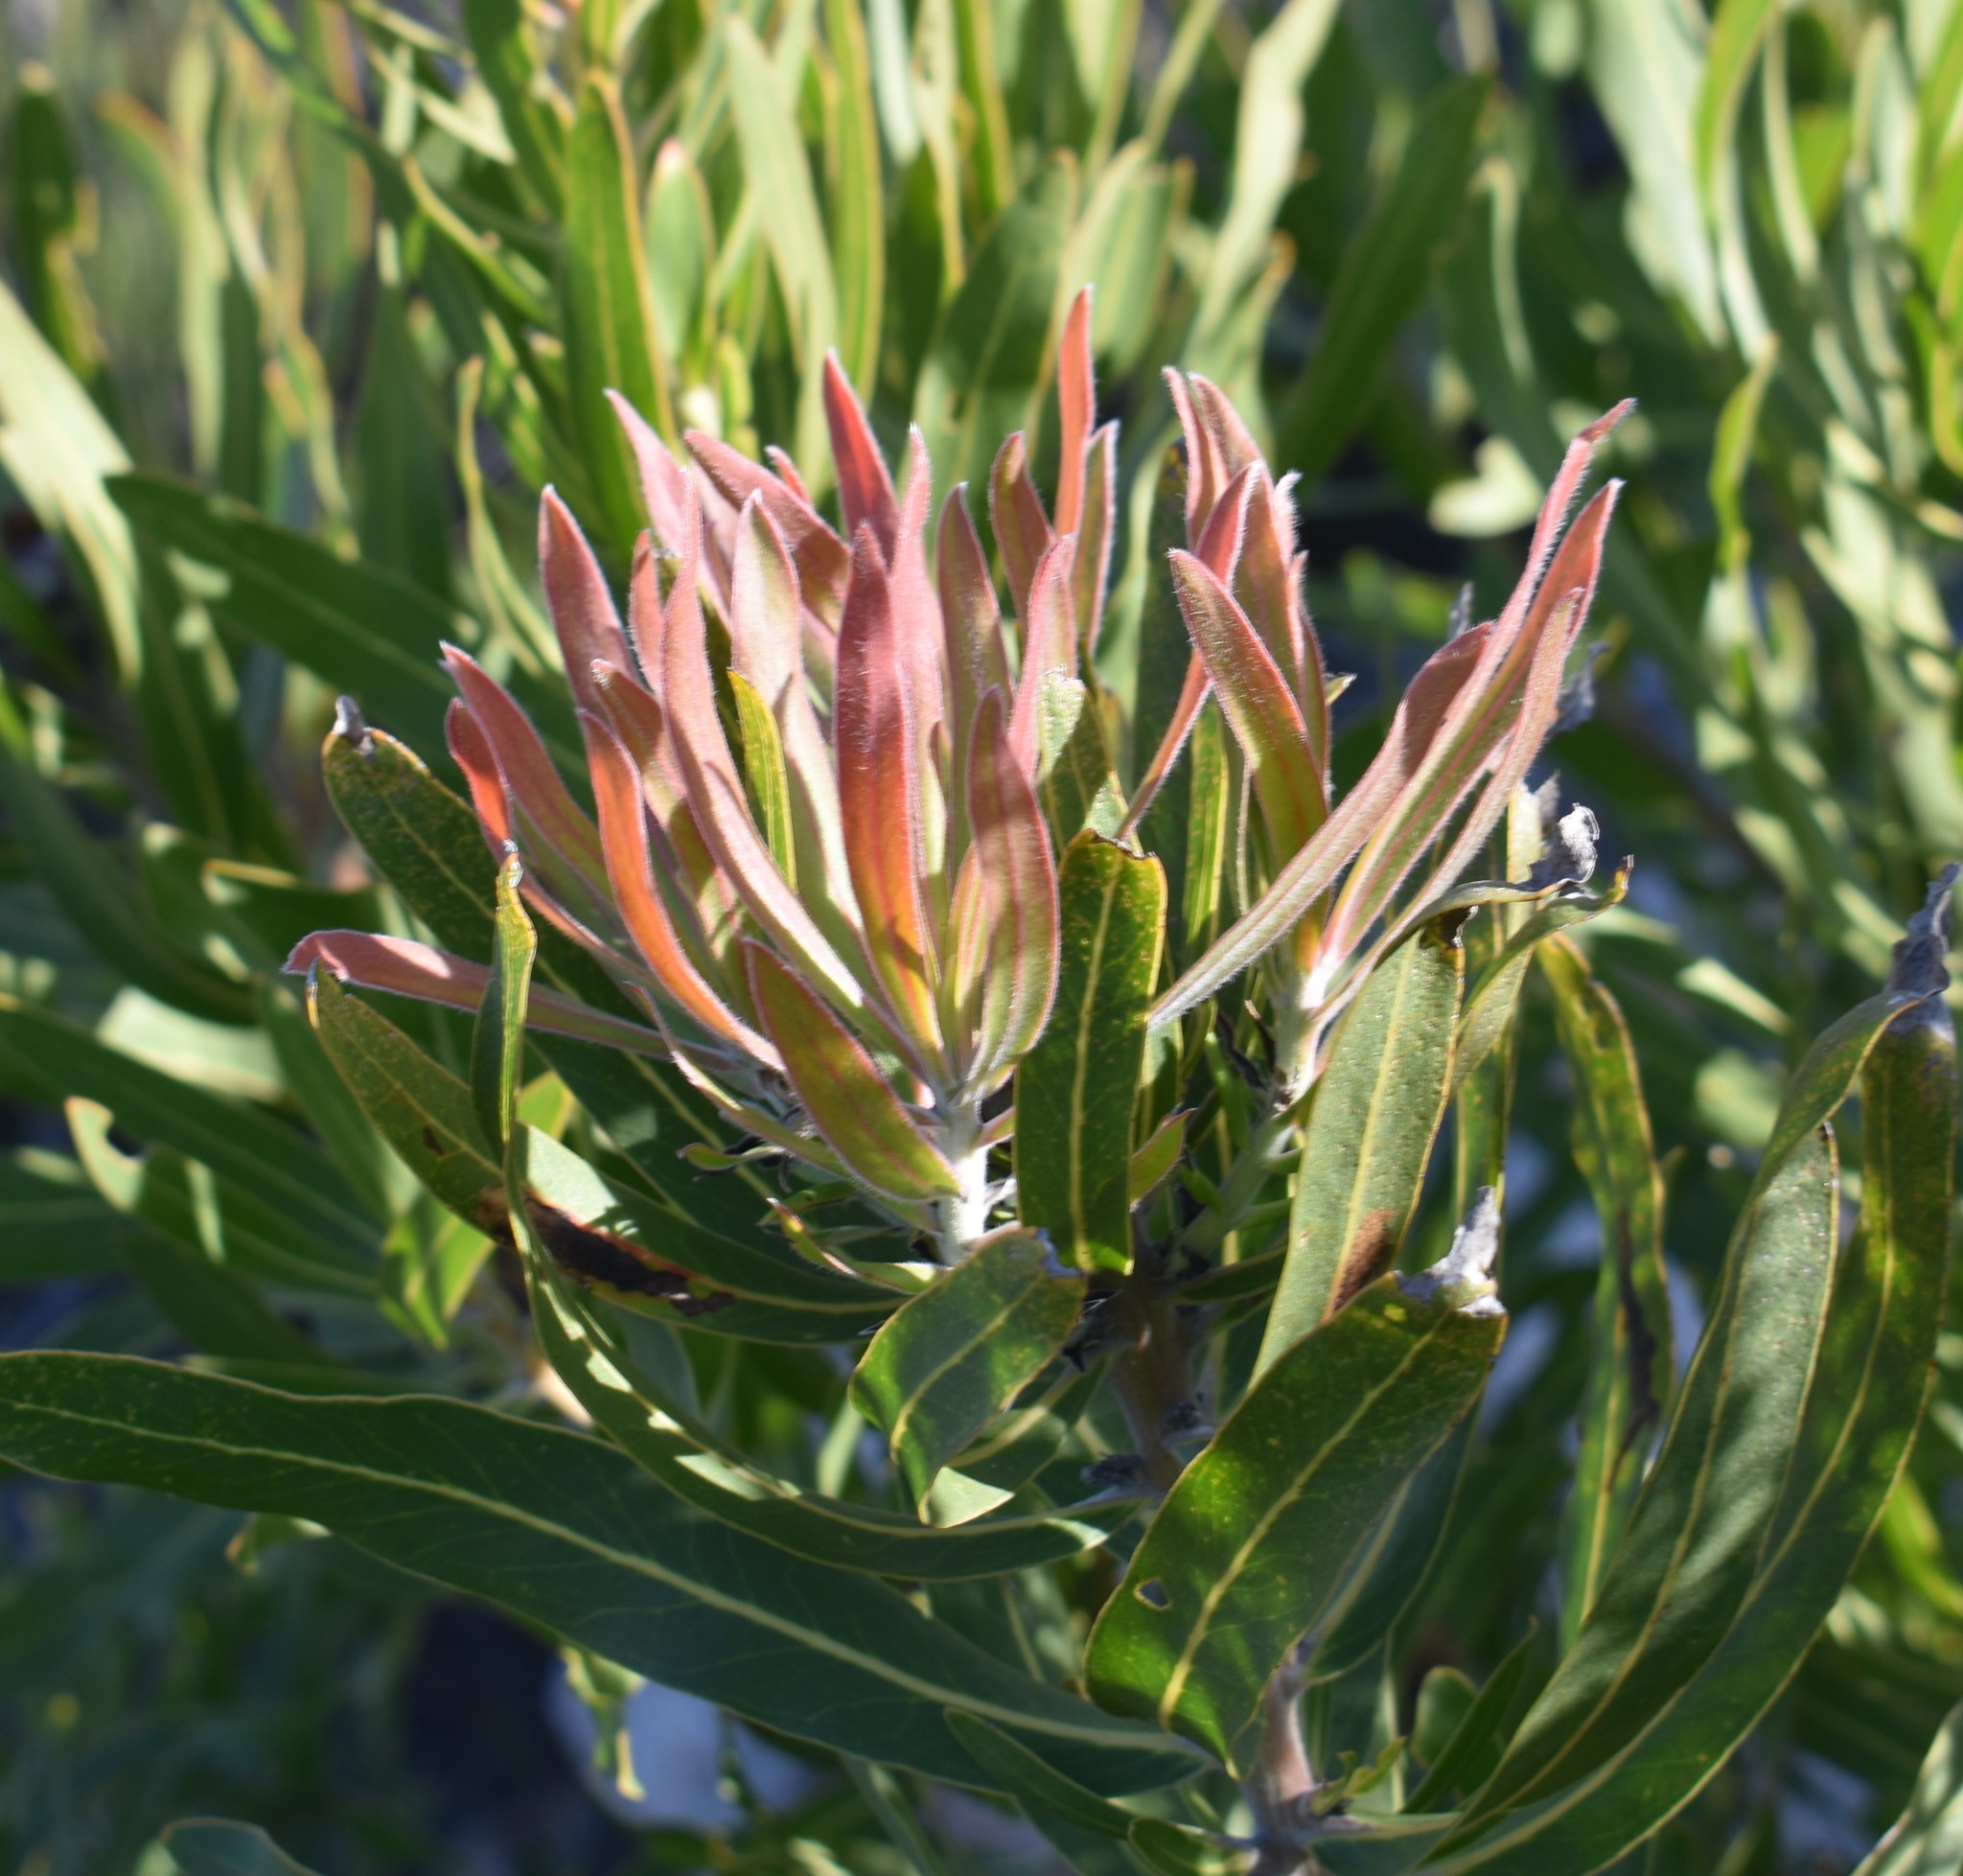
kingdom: Plantae
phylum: Tracheophyta
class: Magnoliopsida
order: Proteales
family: Proteaceae
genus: Protea
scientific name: Protea neriifolia
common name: Blue sugarbush
